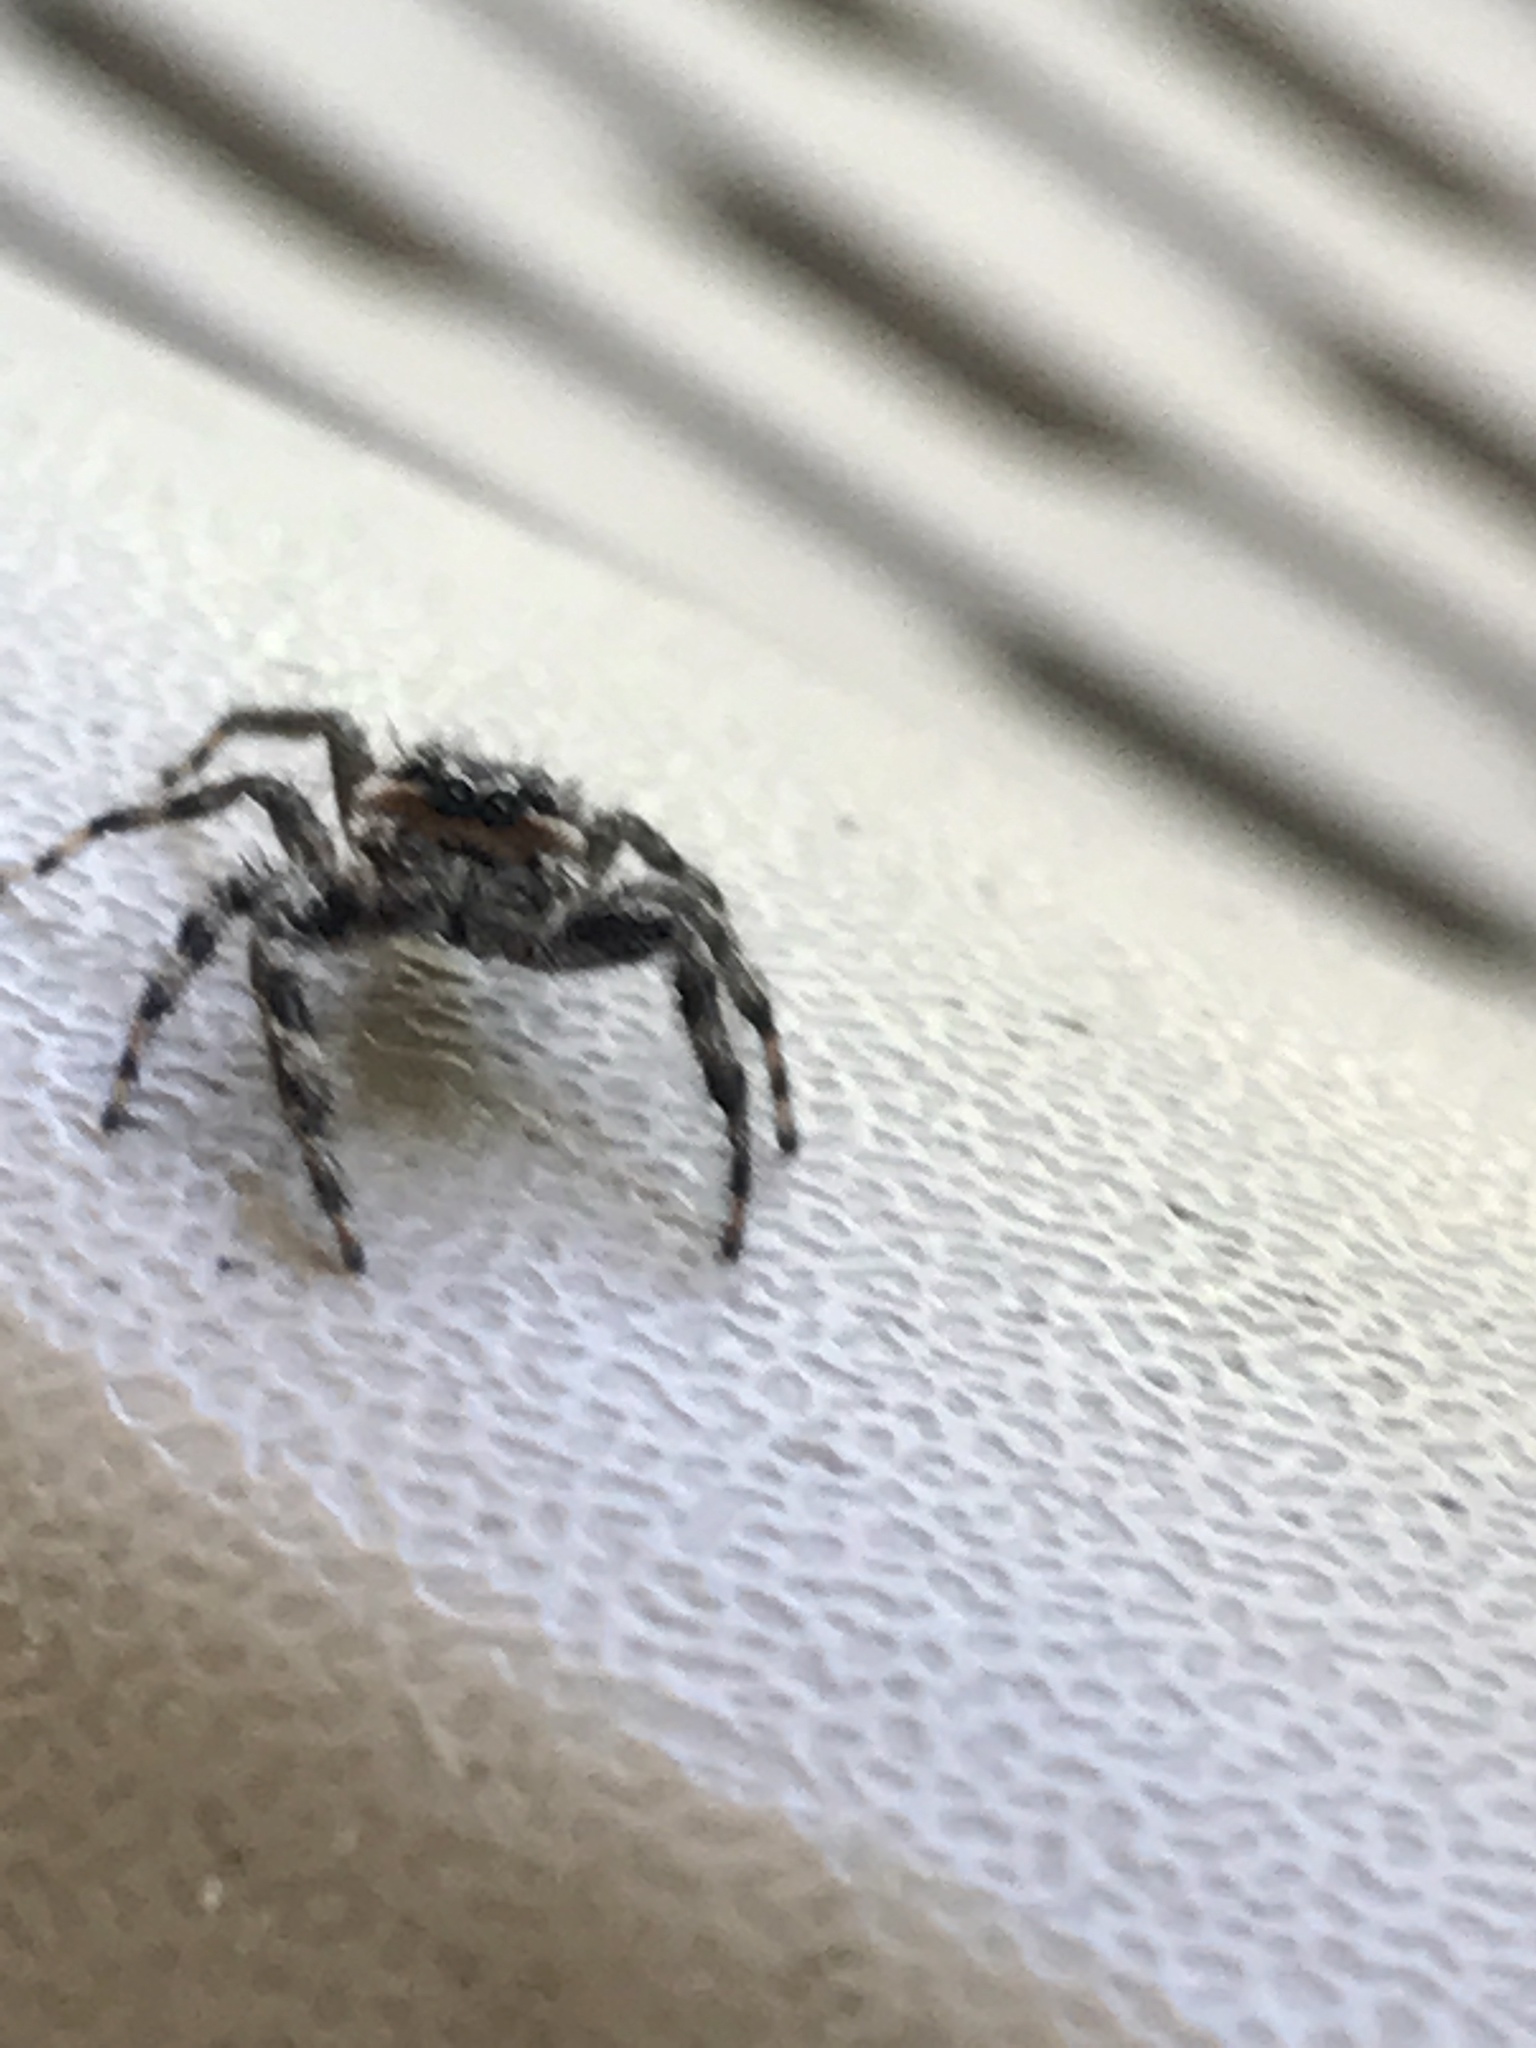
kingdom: Animalia
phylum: Arthropoda
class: Arachnida
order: Araneae
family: Salticidae
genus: Platycryptus
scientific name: Platycryptus undatus
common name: Tan jumping spider
